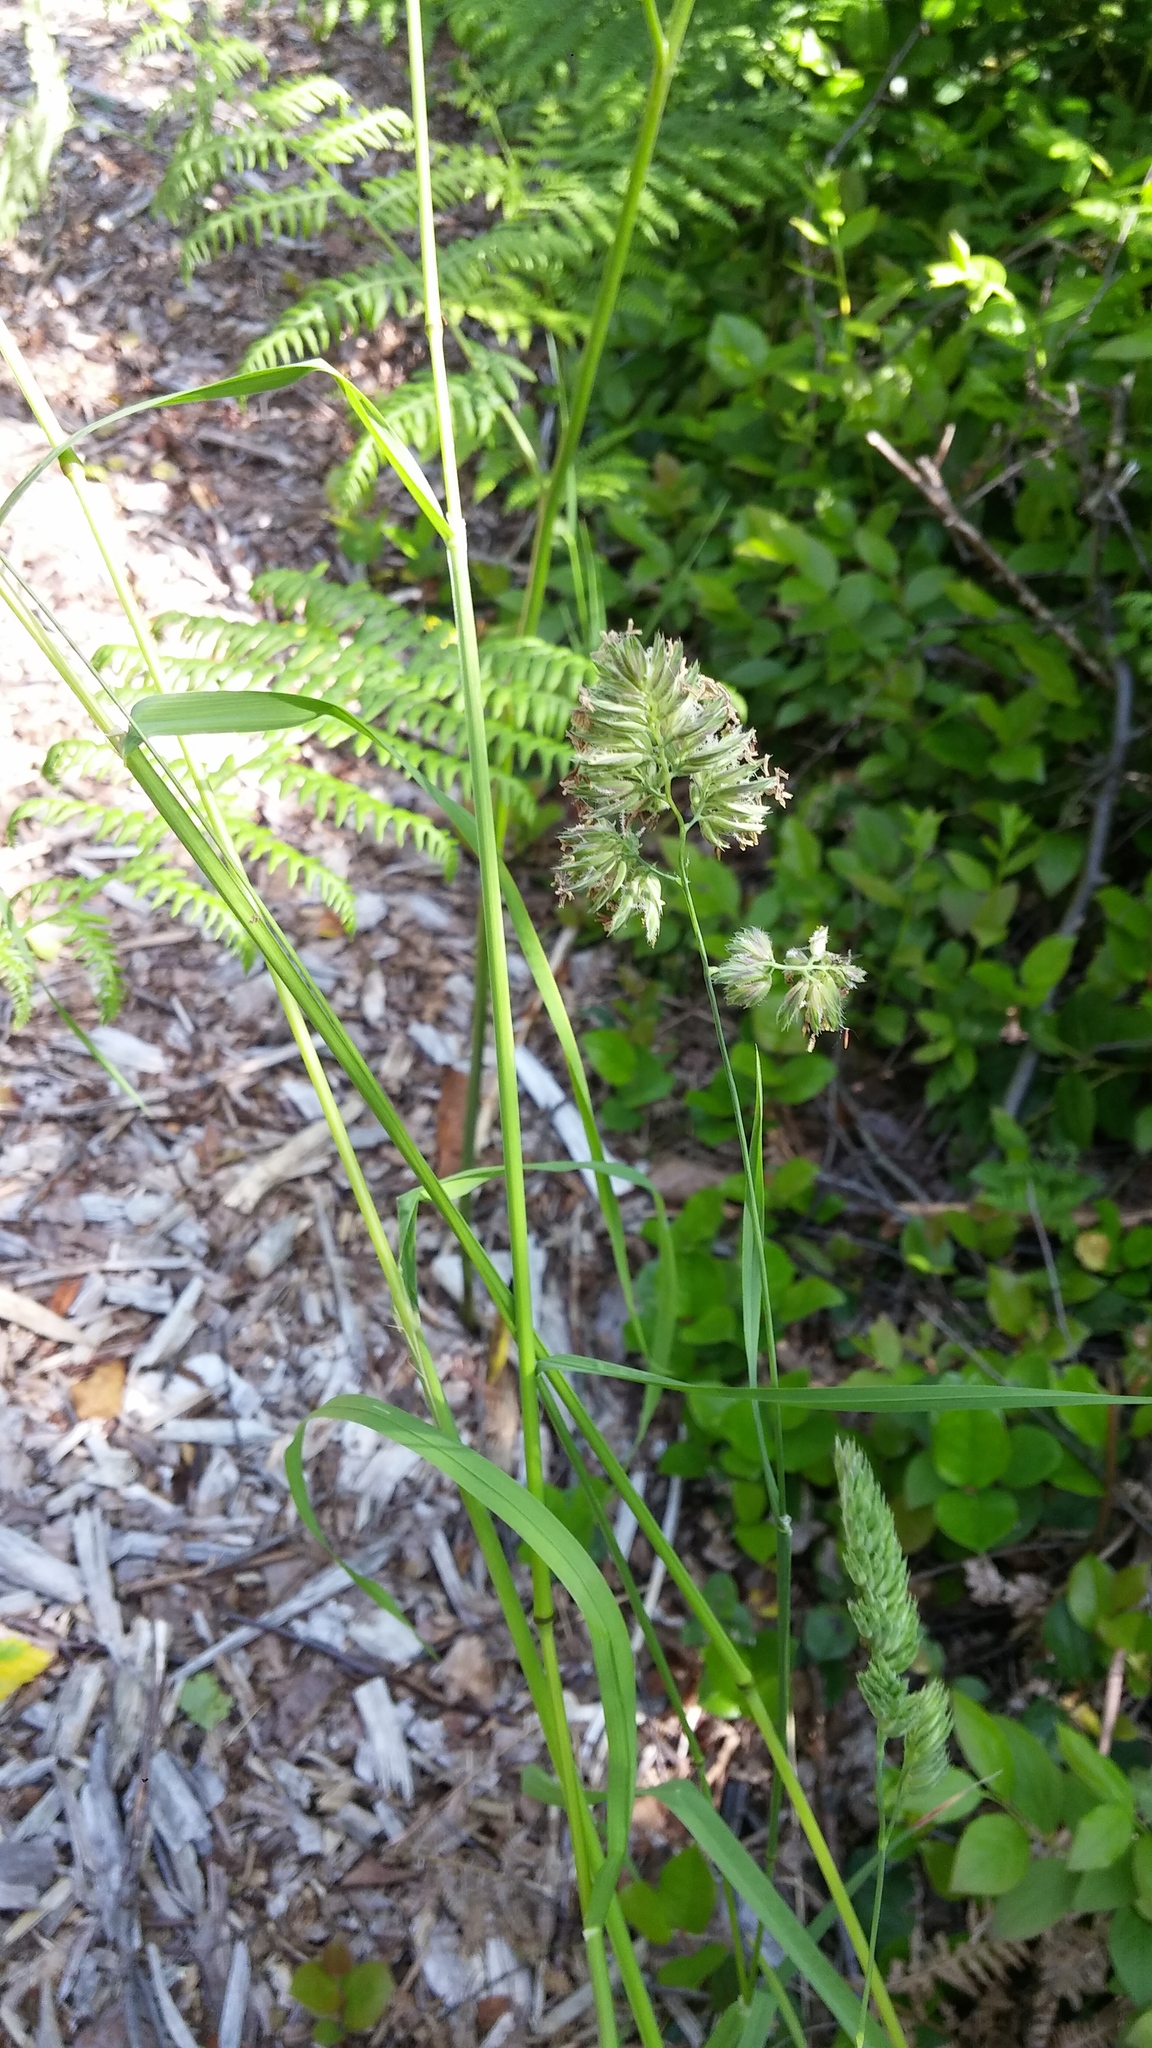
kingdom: Plantae
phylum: Tracheophyta
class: Liliopsida
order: Poales
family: Poaceae
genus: Dactylis
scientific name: Dactylis glomerata
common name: Orchardgrass
